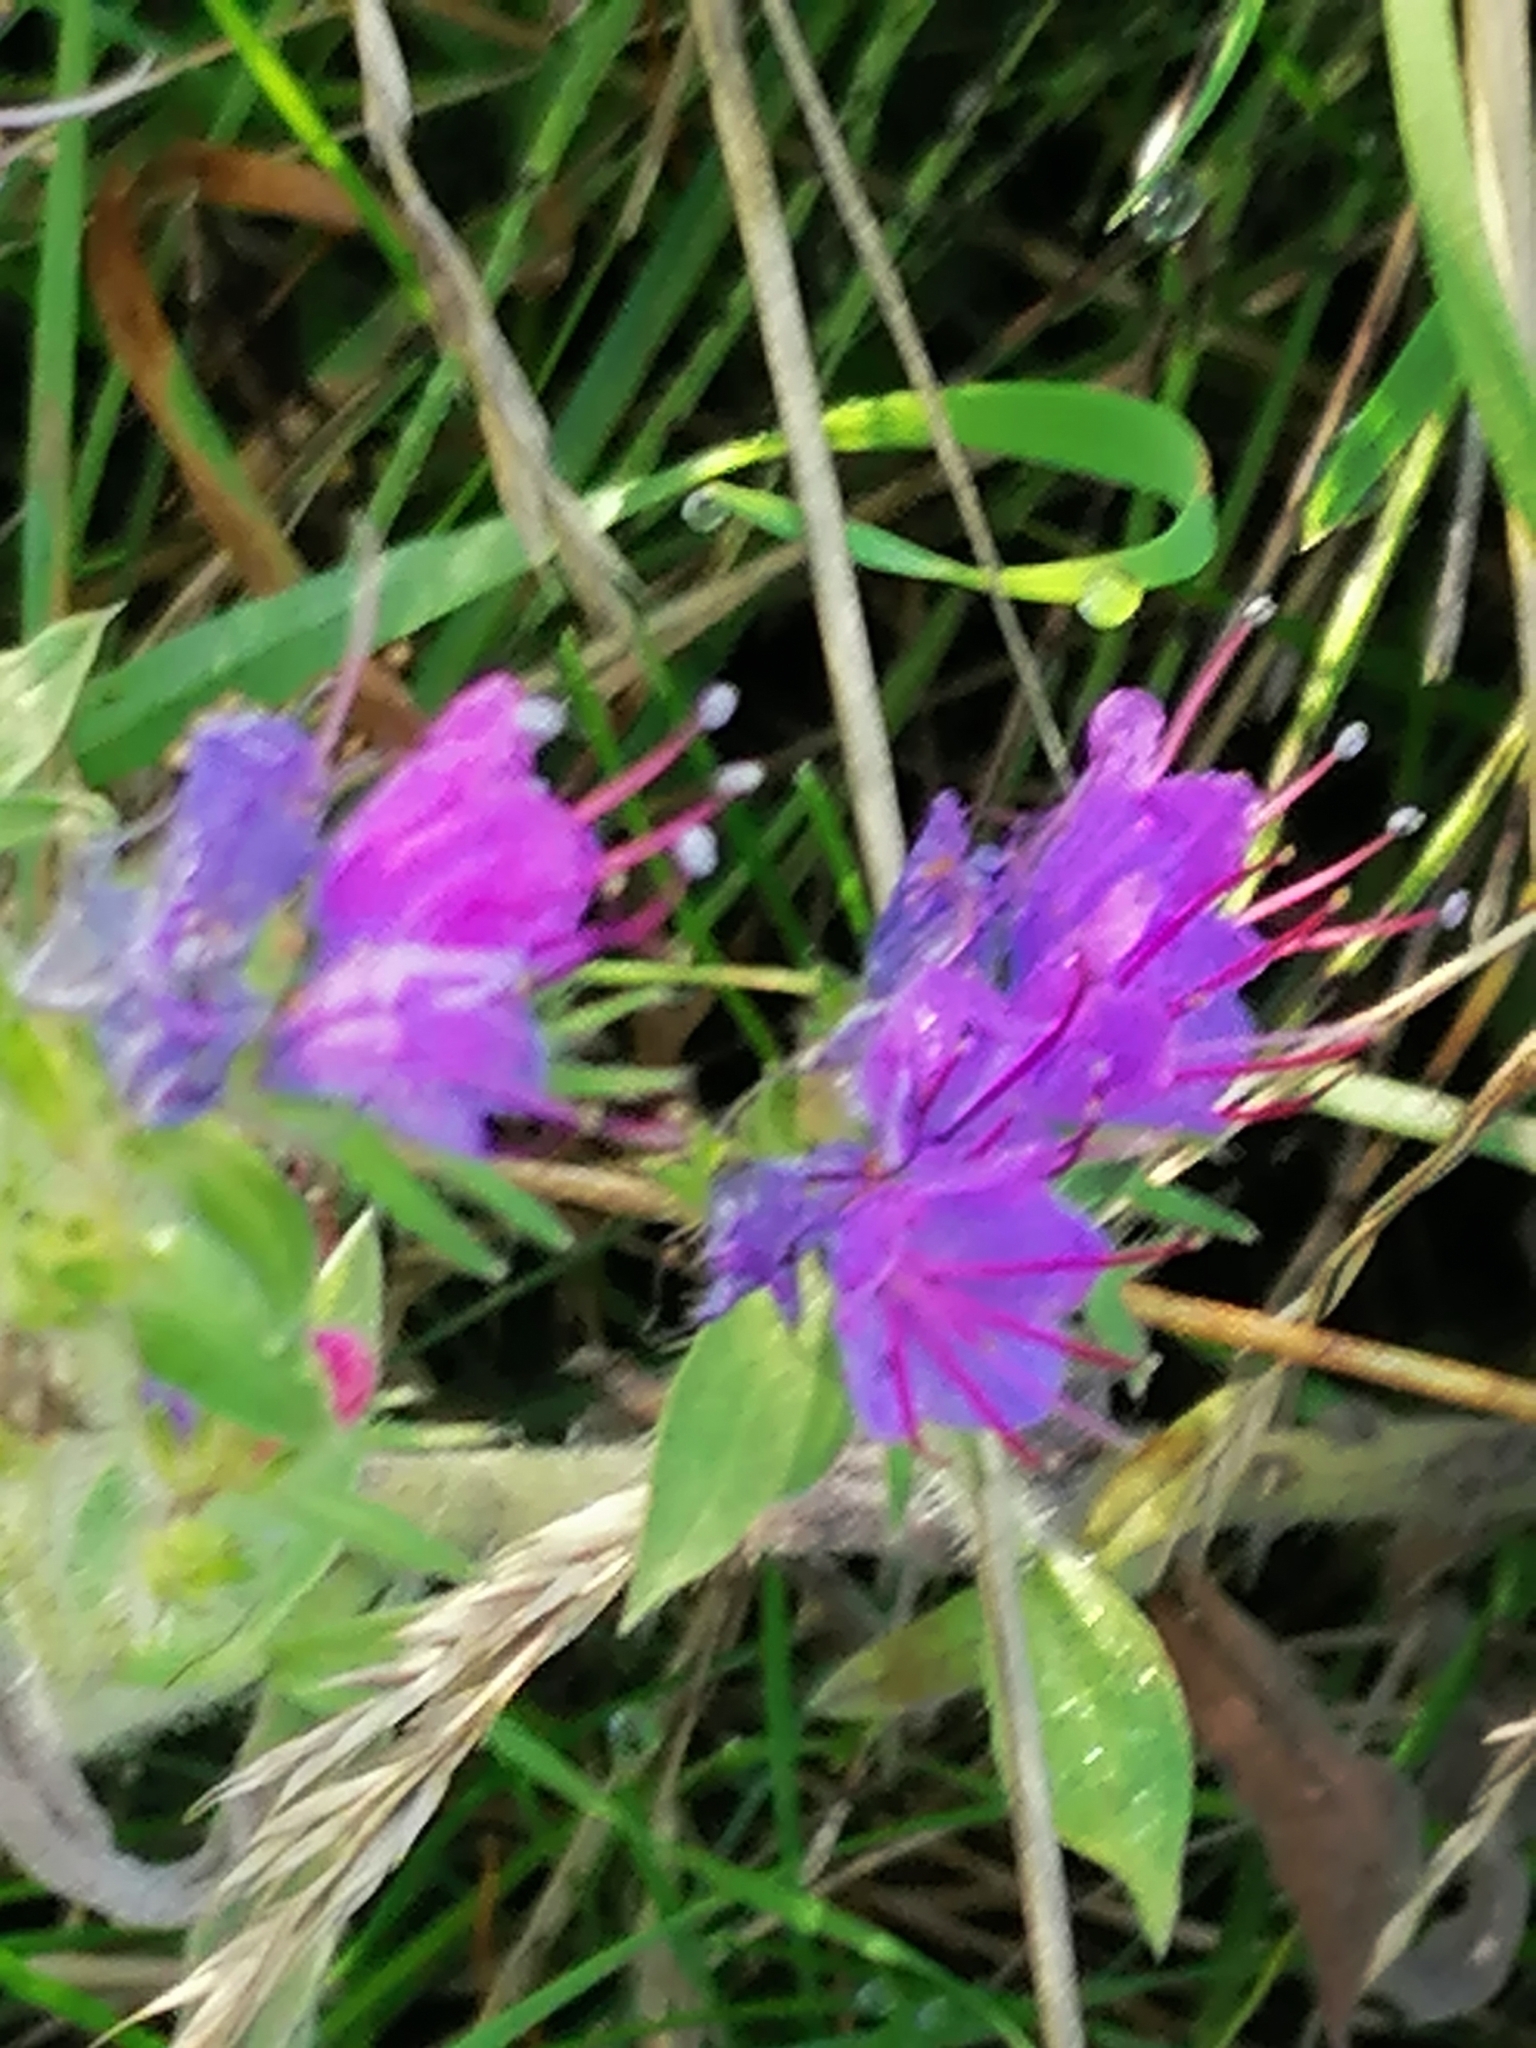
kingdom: Plantae
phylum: Tracheophyta
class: Magnoliopsida
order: Boraginales
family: Boraginaceae
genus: Echium
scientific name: Echium vulgare
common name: Common viper's bugloss
